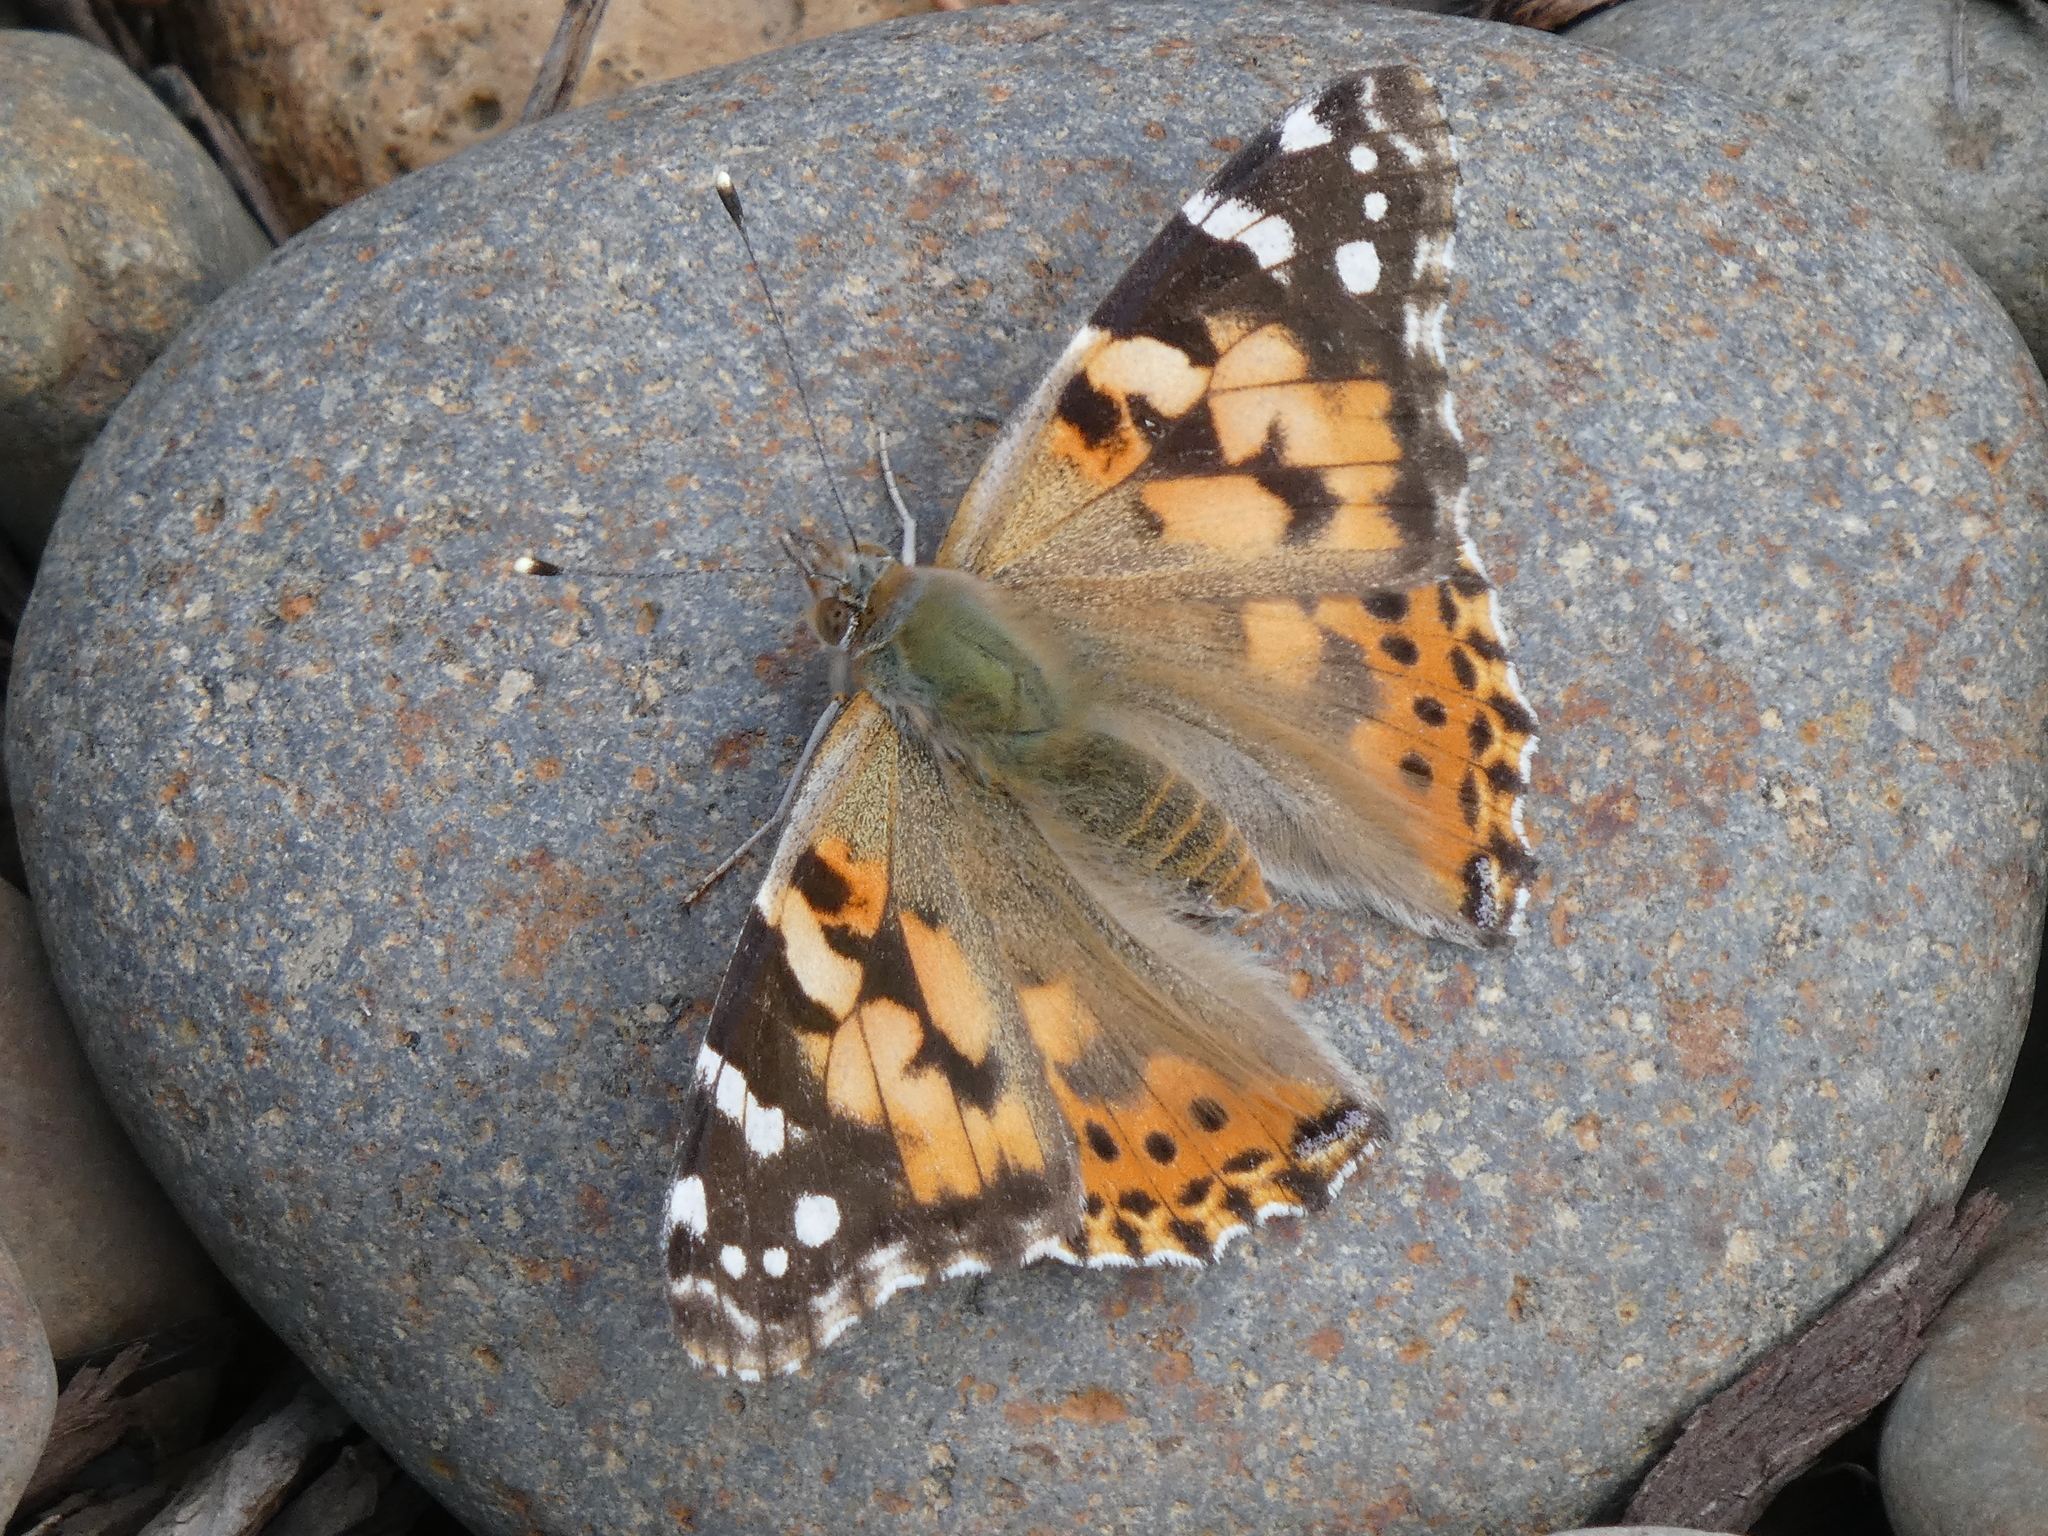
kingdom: Animalia
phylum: Arthropoda
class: Insecta
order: Lepidoptera
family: Nymphalidae
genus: Vanessa
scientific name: Vanessa cardui
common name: Painted lady
